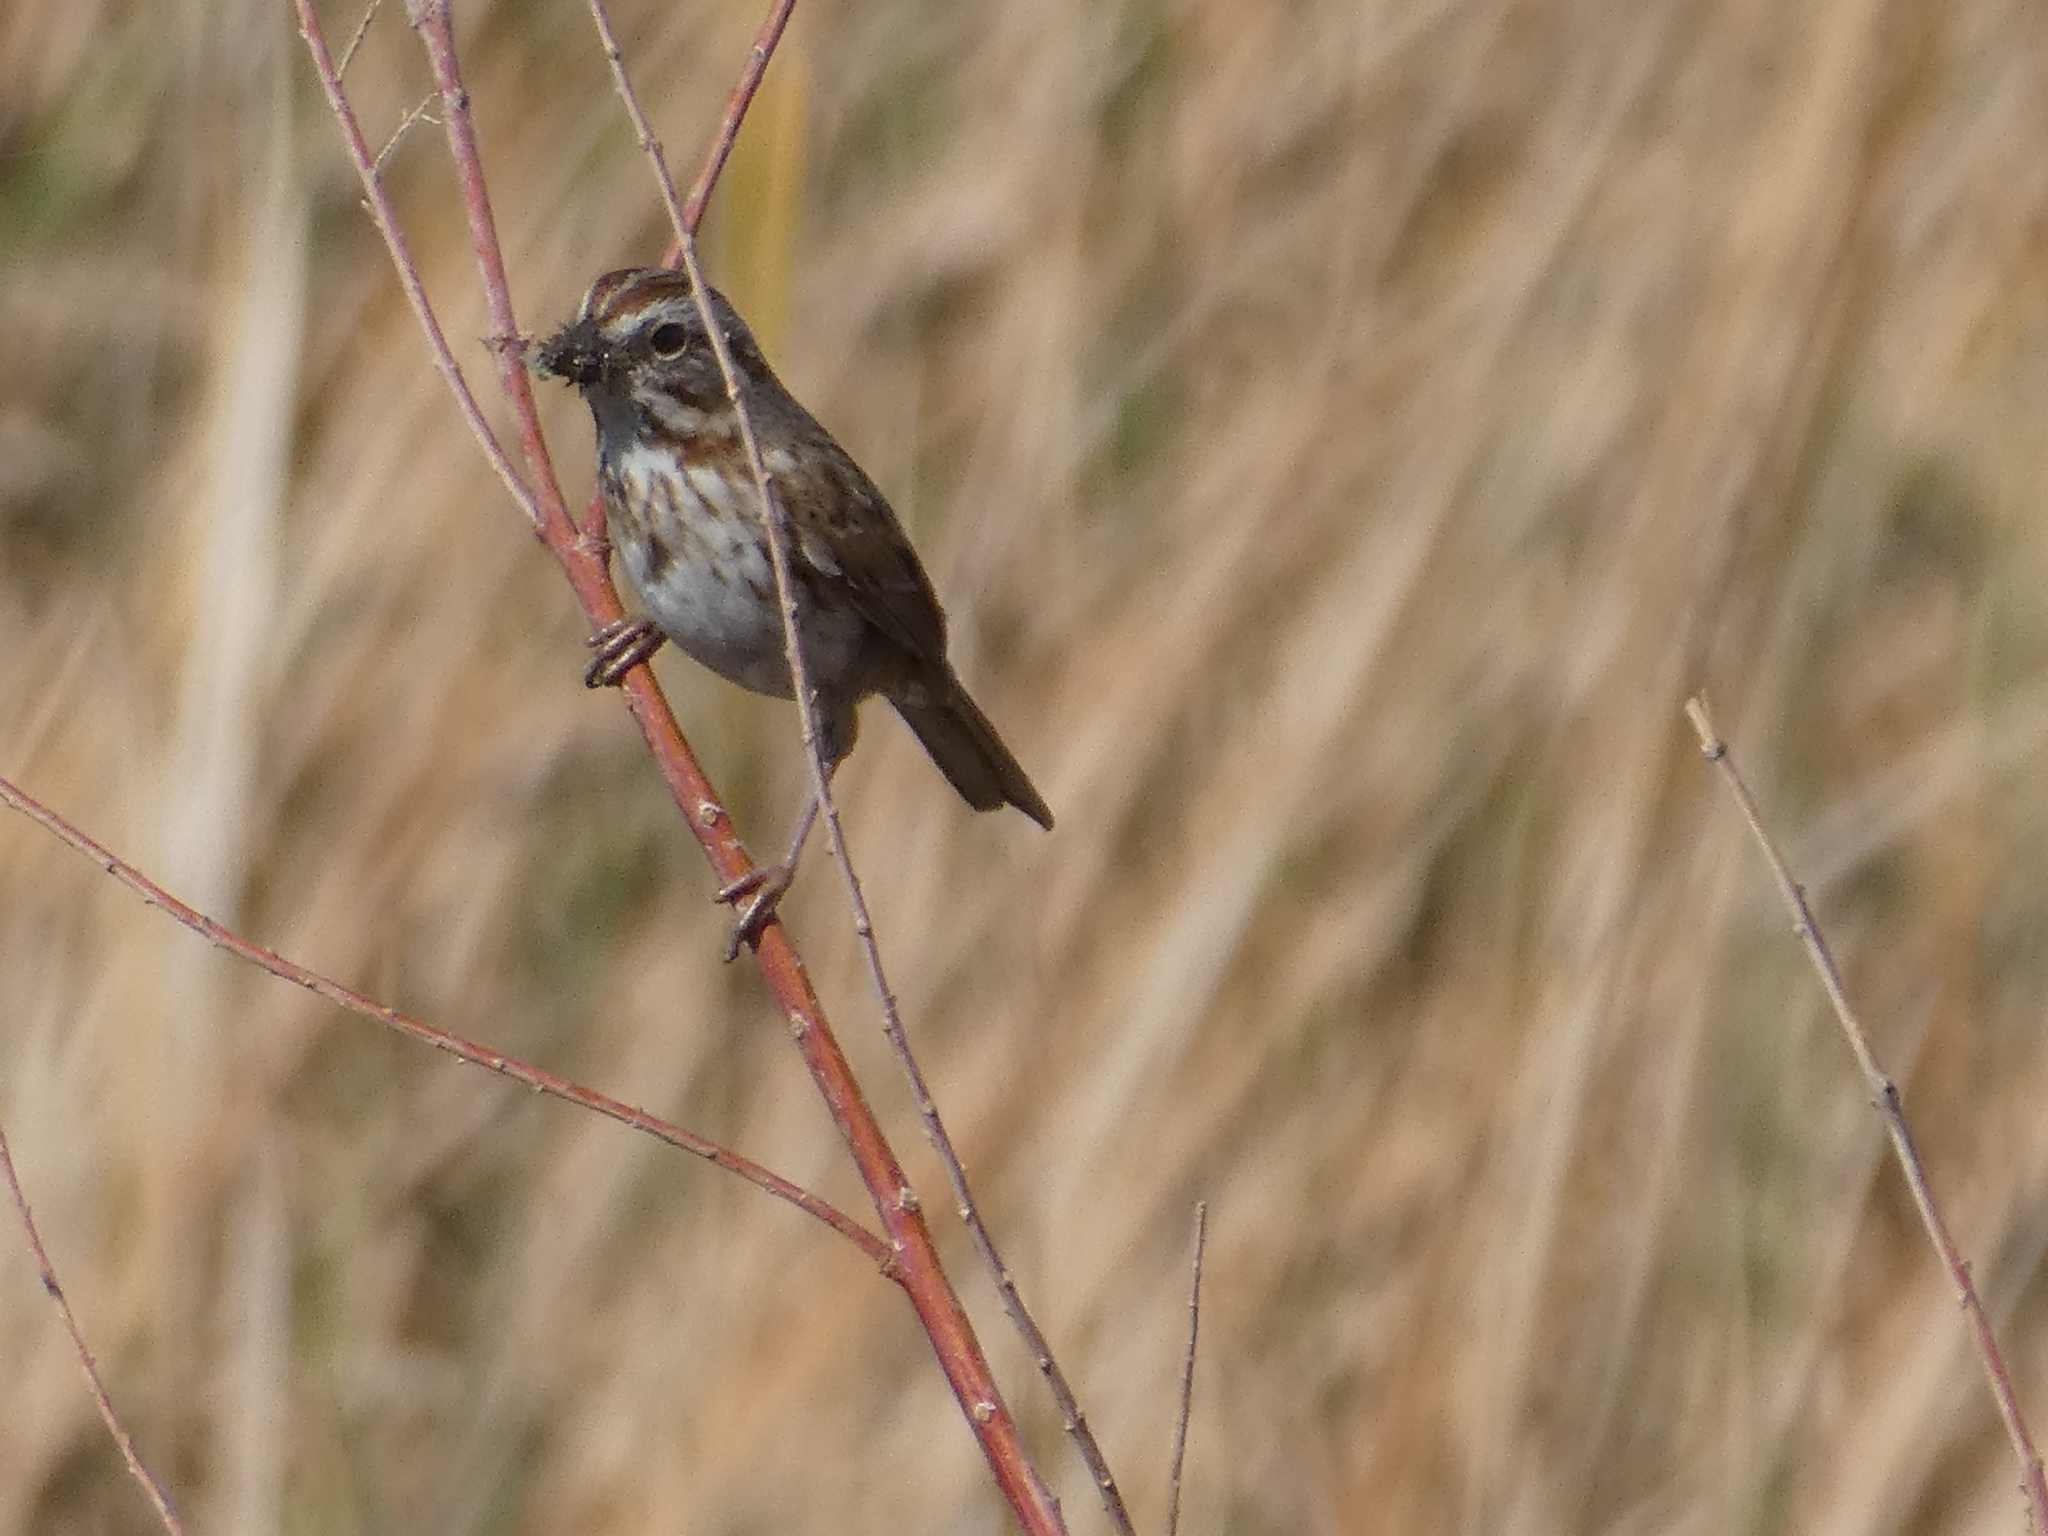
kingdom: Animalia
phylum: Chordata
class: Aves
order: Passeriformes
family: Passerellidae
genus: Melospiza
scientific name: Melospiza melodia
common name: Song sparrow
